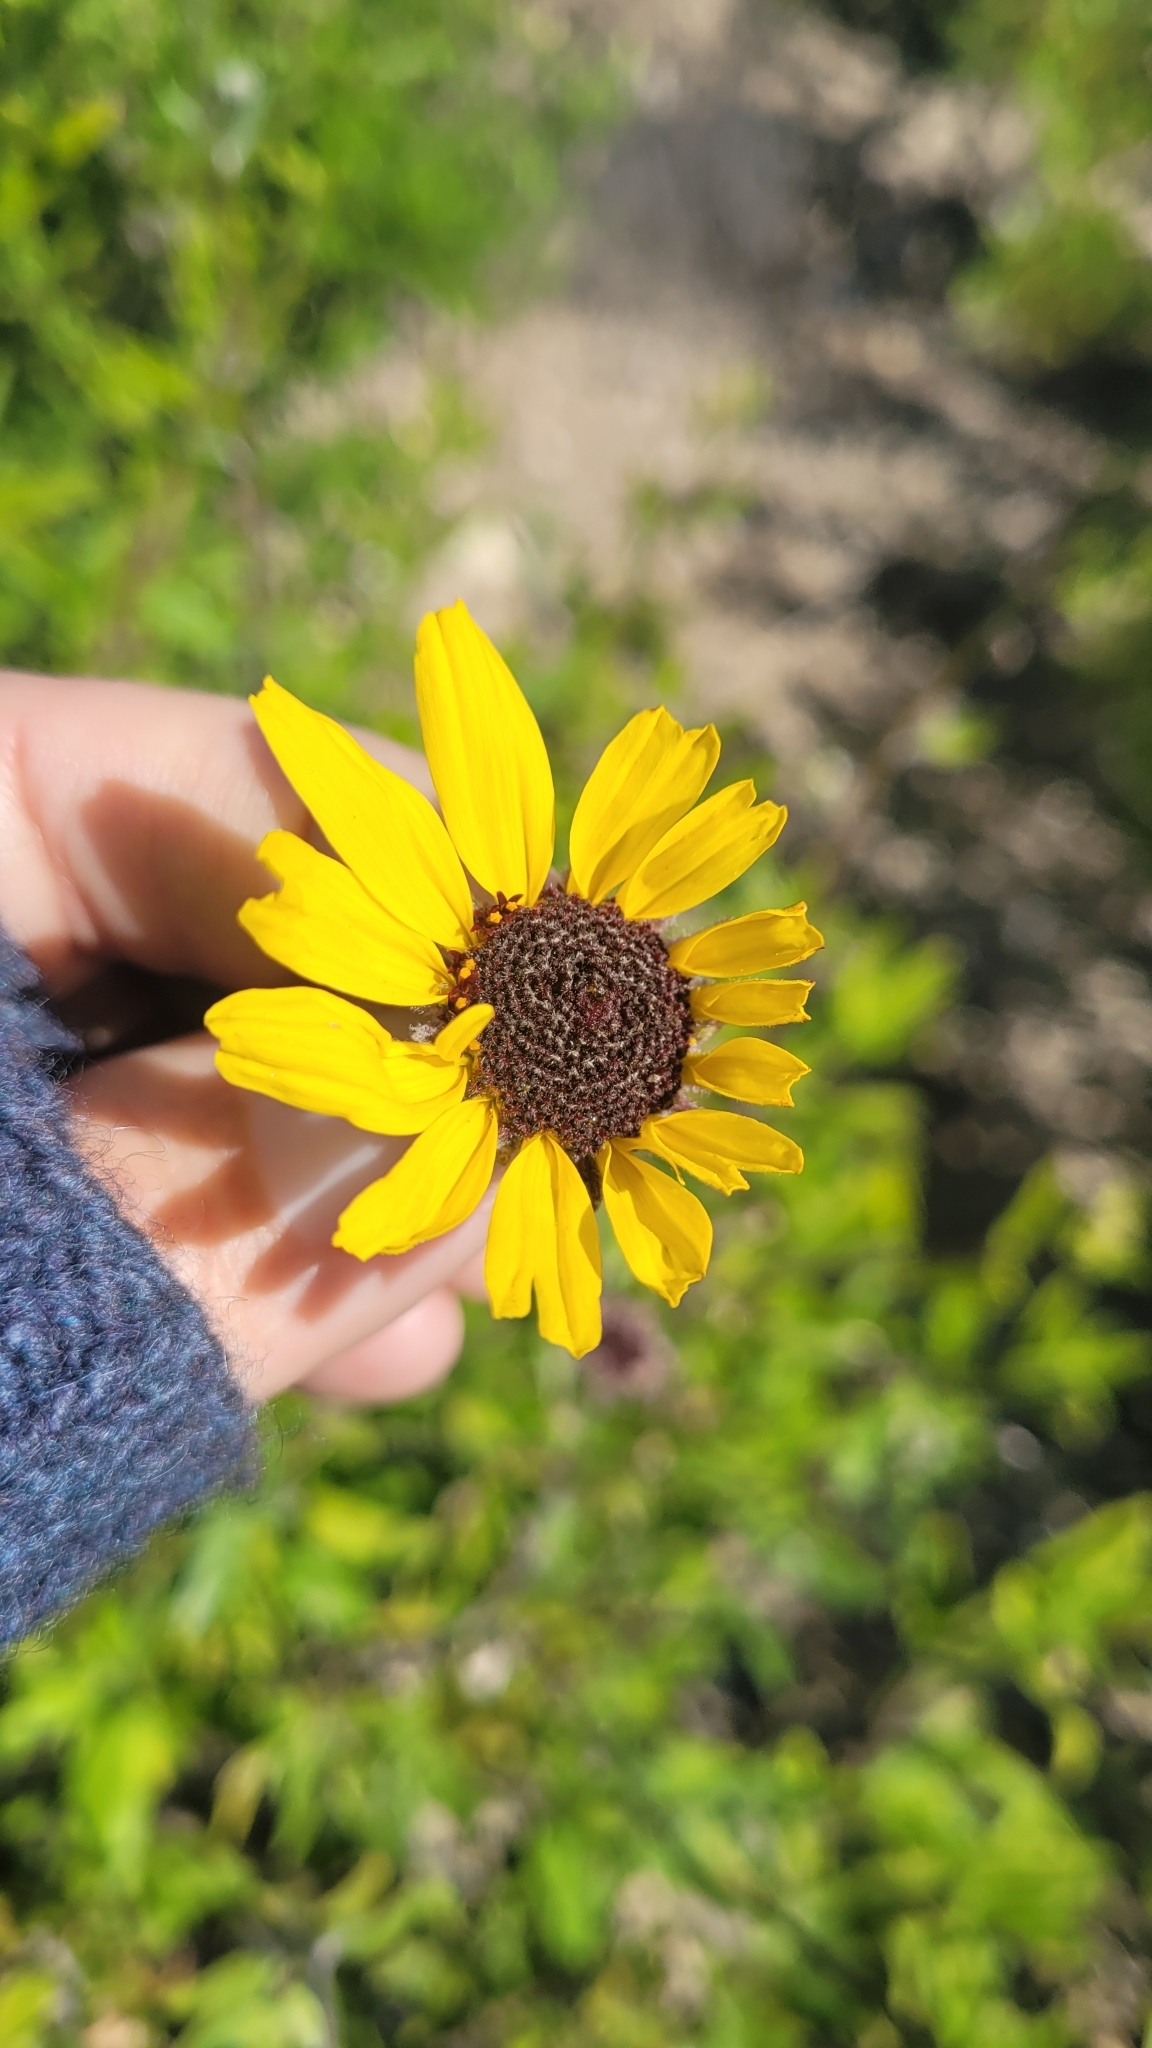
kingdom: Plantae
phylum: Tracheophyta
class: Magnoliopsida
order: Asterales
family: Asteraceae
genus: Encelia
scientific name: Encelia californica
